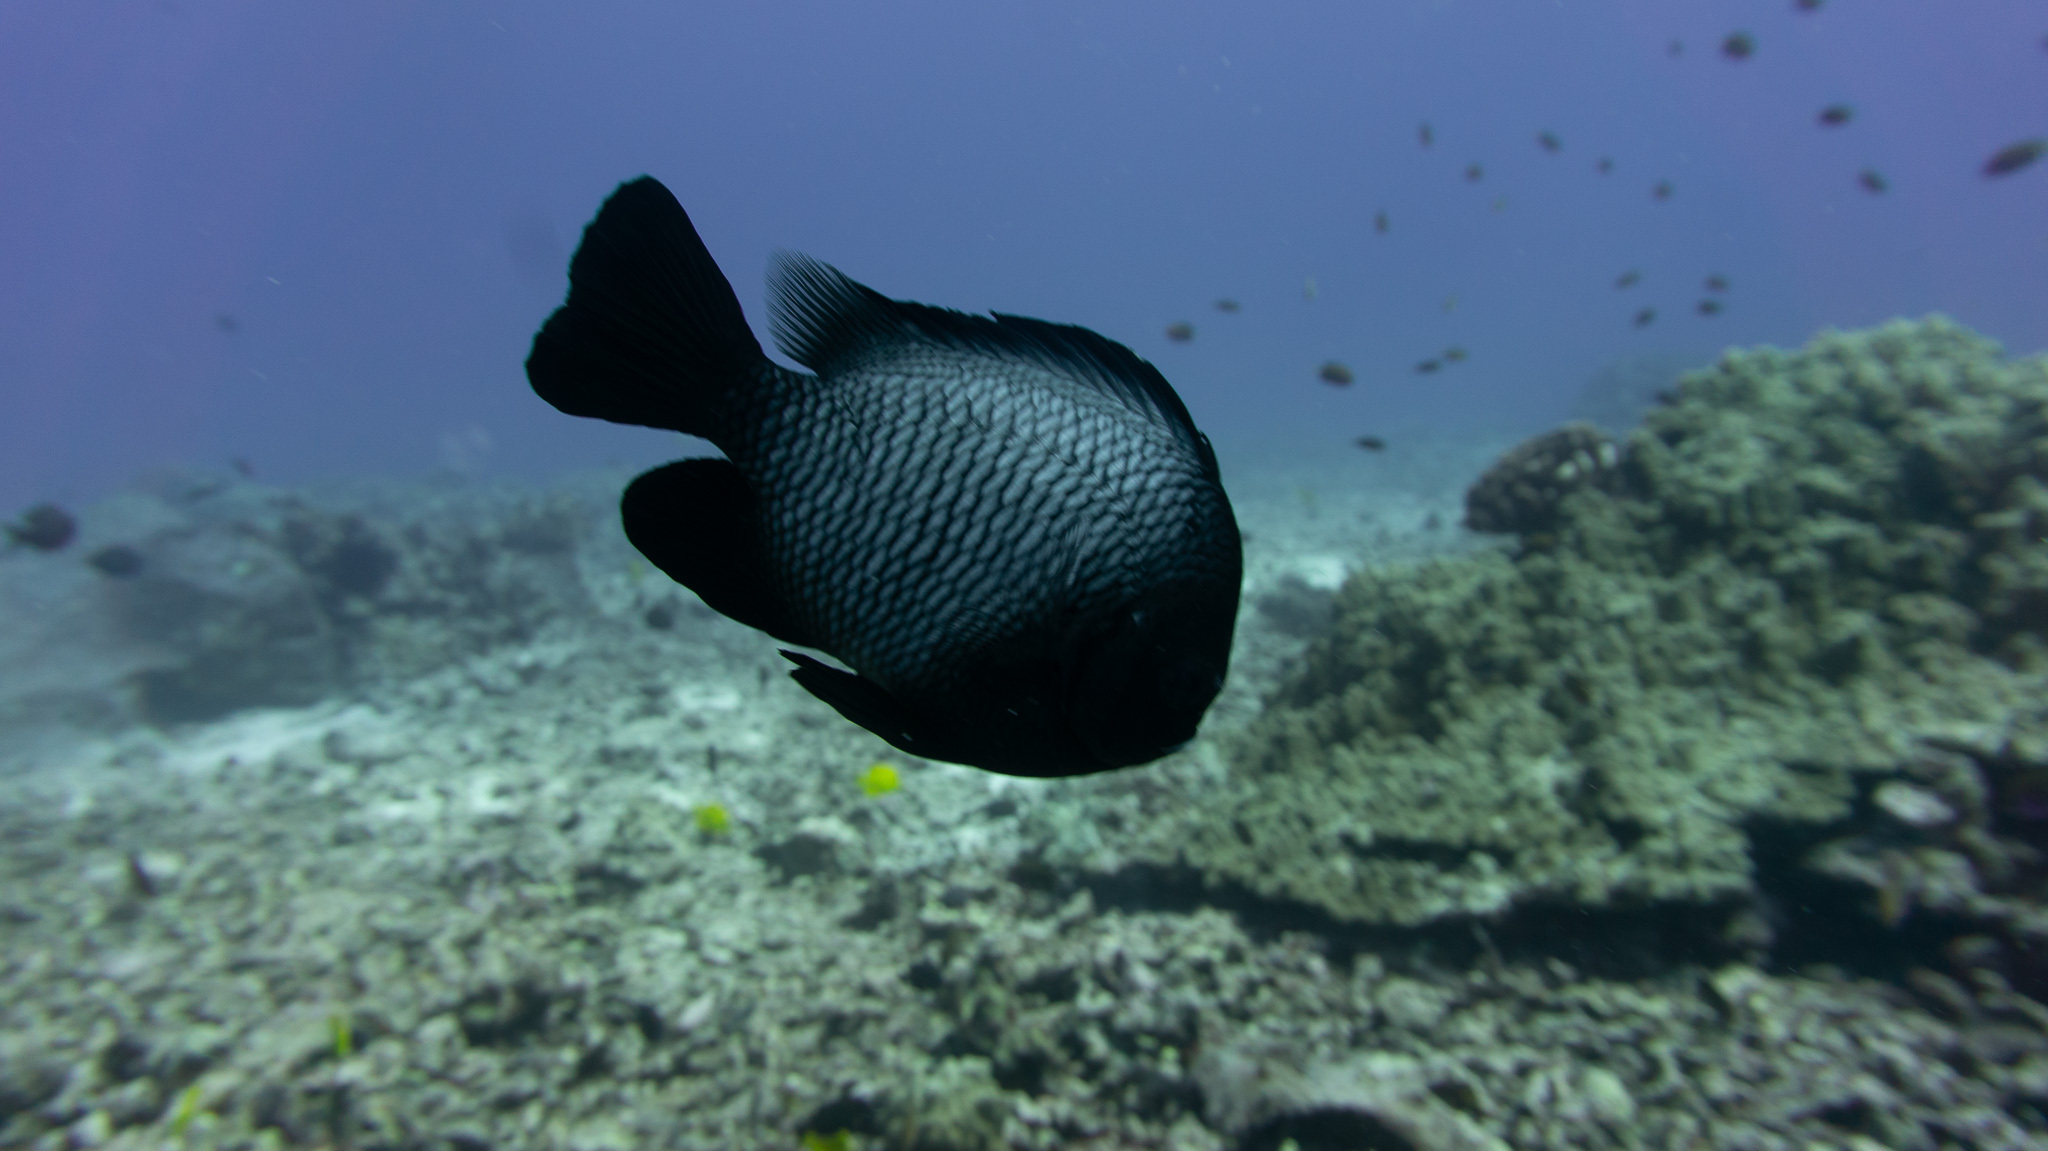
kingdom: Animalia
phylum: Chordata
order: Perciformes
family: Pomacentridae
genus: Dascyllus
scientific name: Dascyllus albisella
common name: Hawaiian dascyllus
